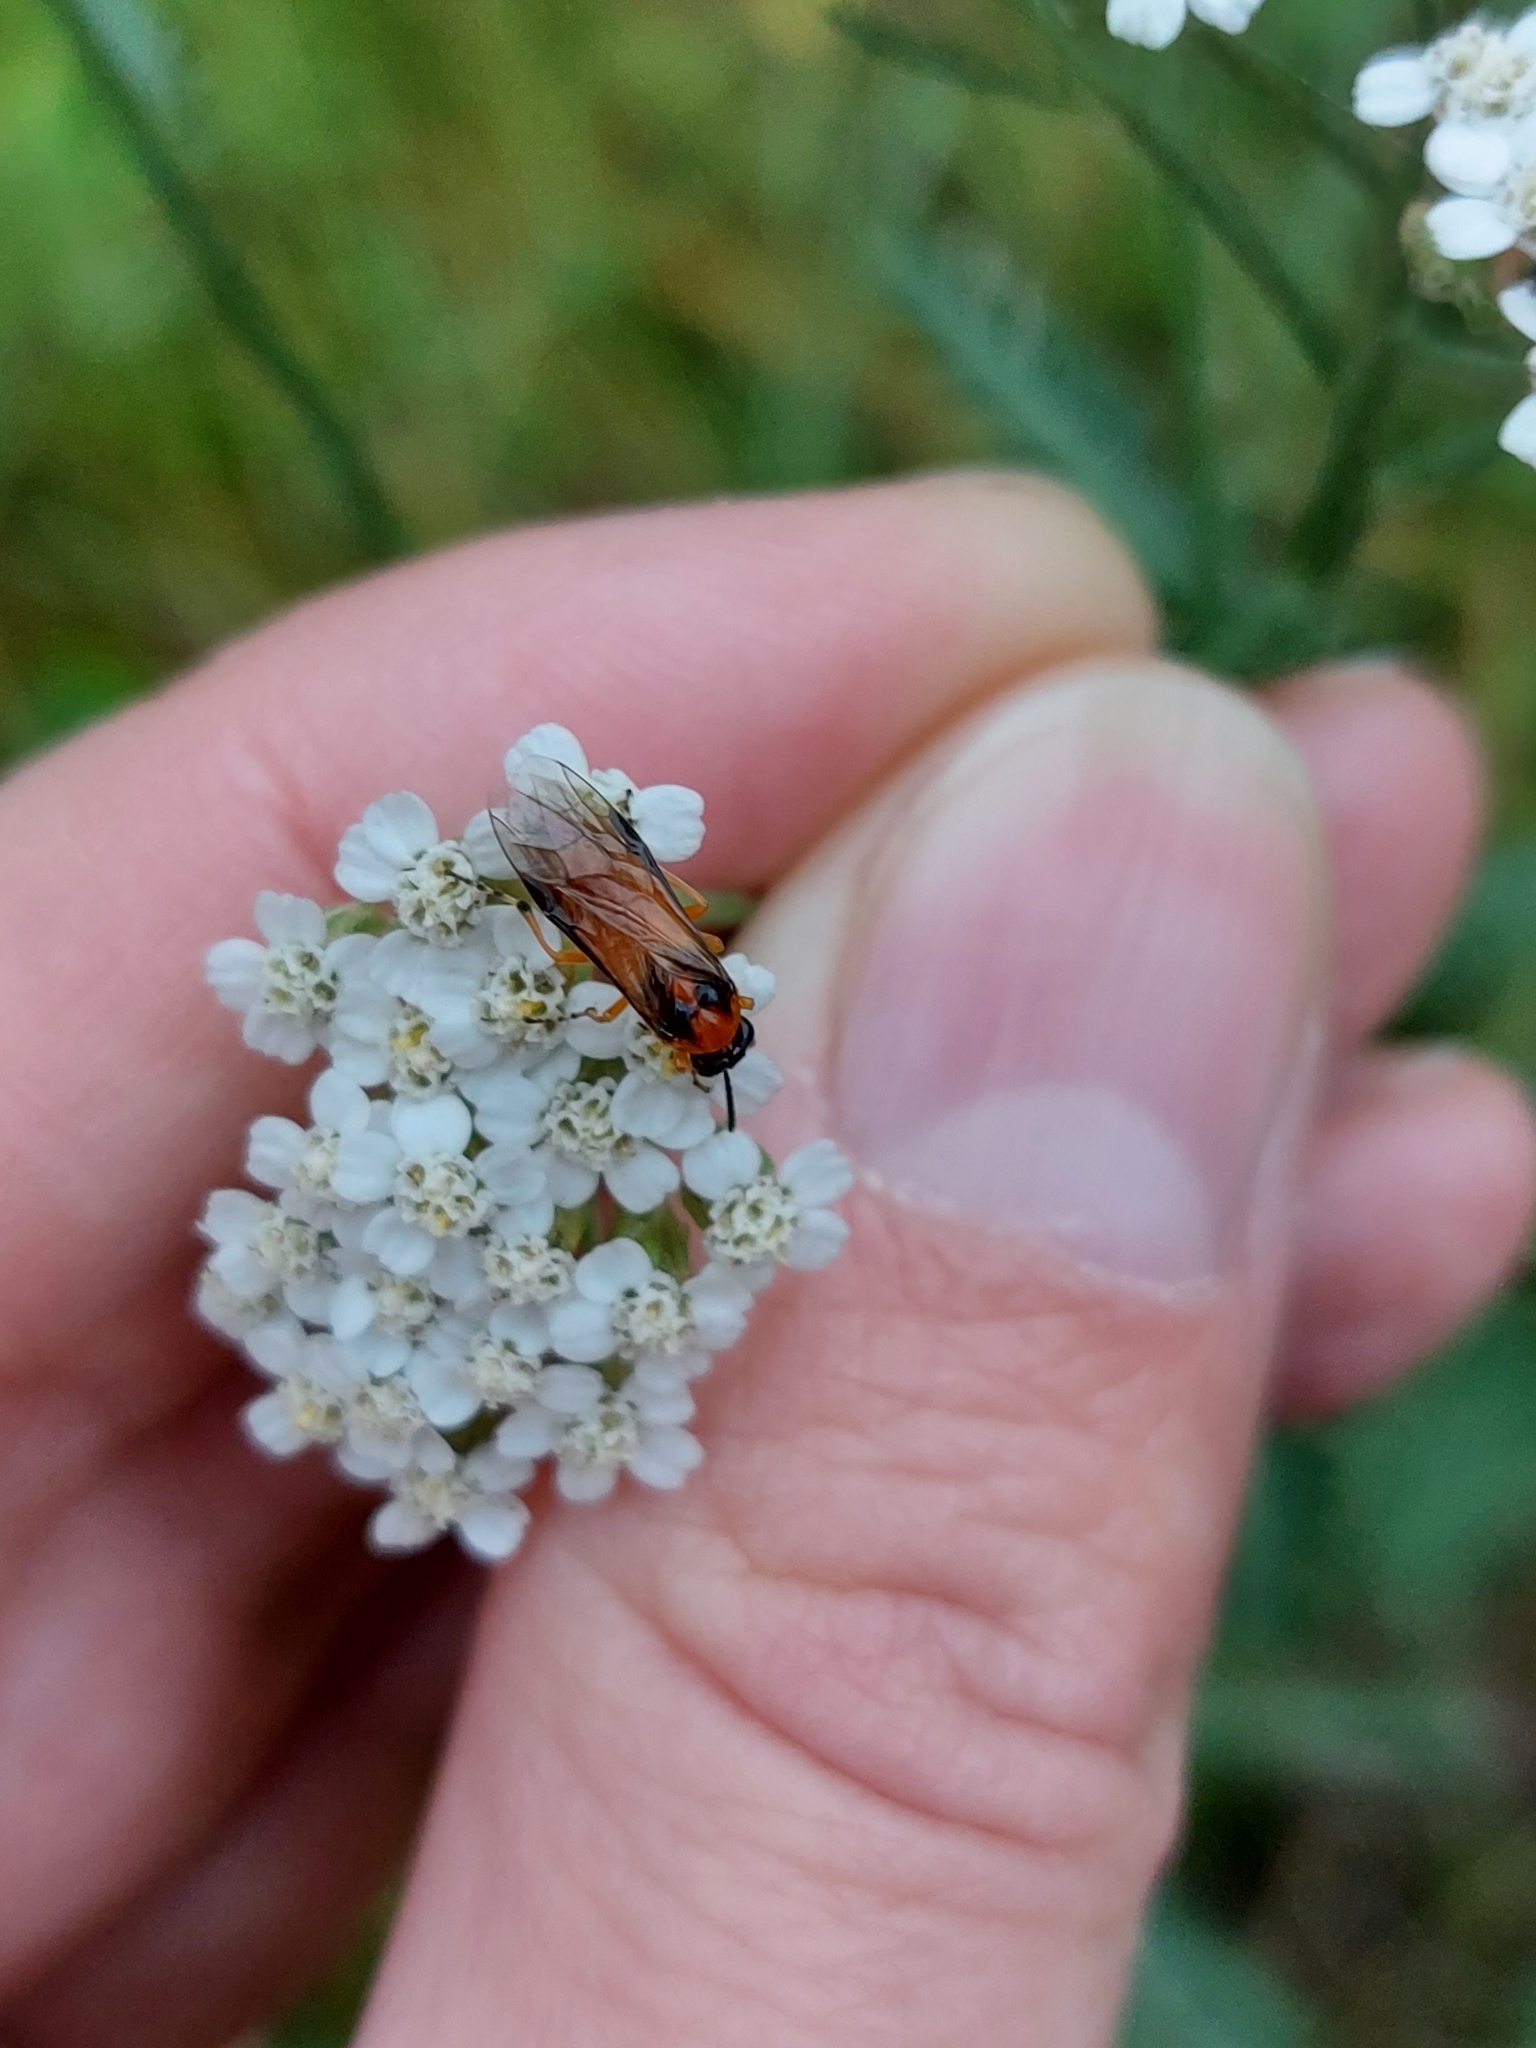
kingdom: Animalia
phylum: Arthropoda
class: Insecta
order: Hymenoptera
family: Tenthredinidae
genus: Athalia
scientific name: Athalia rosae
